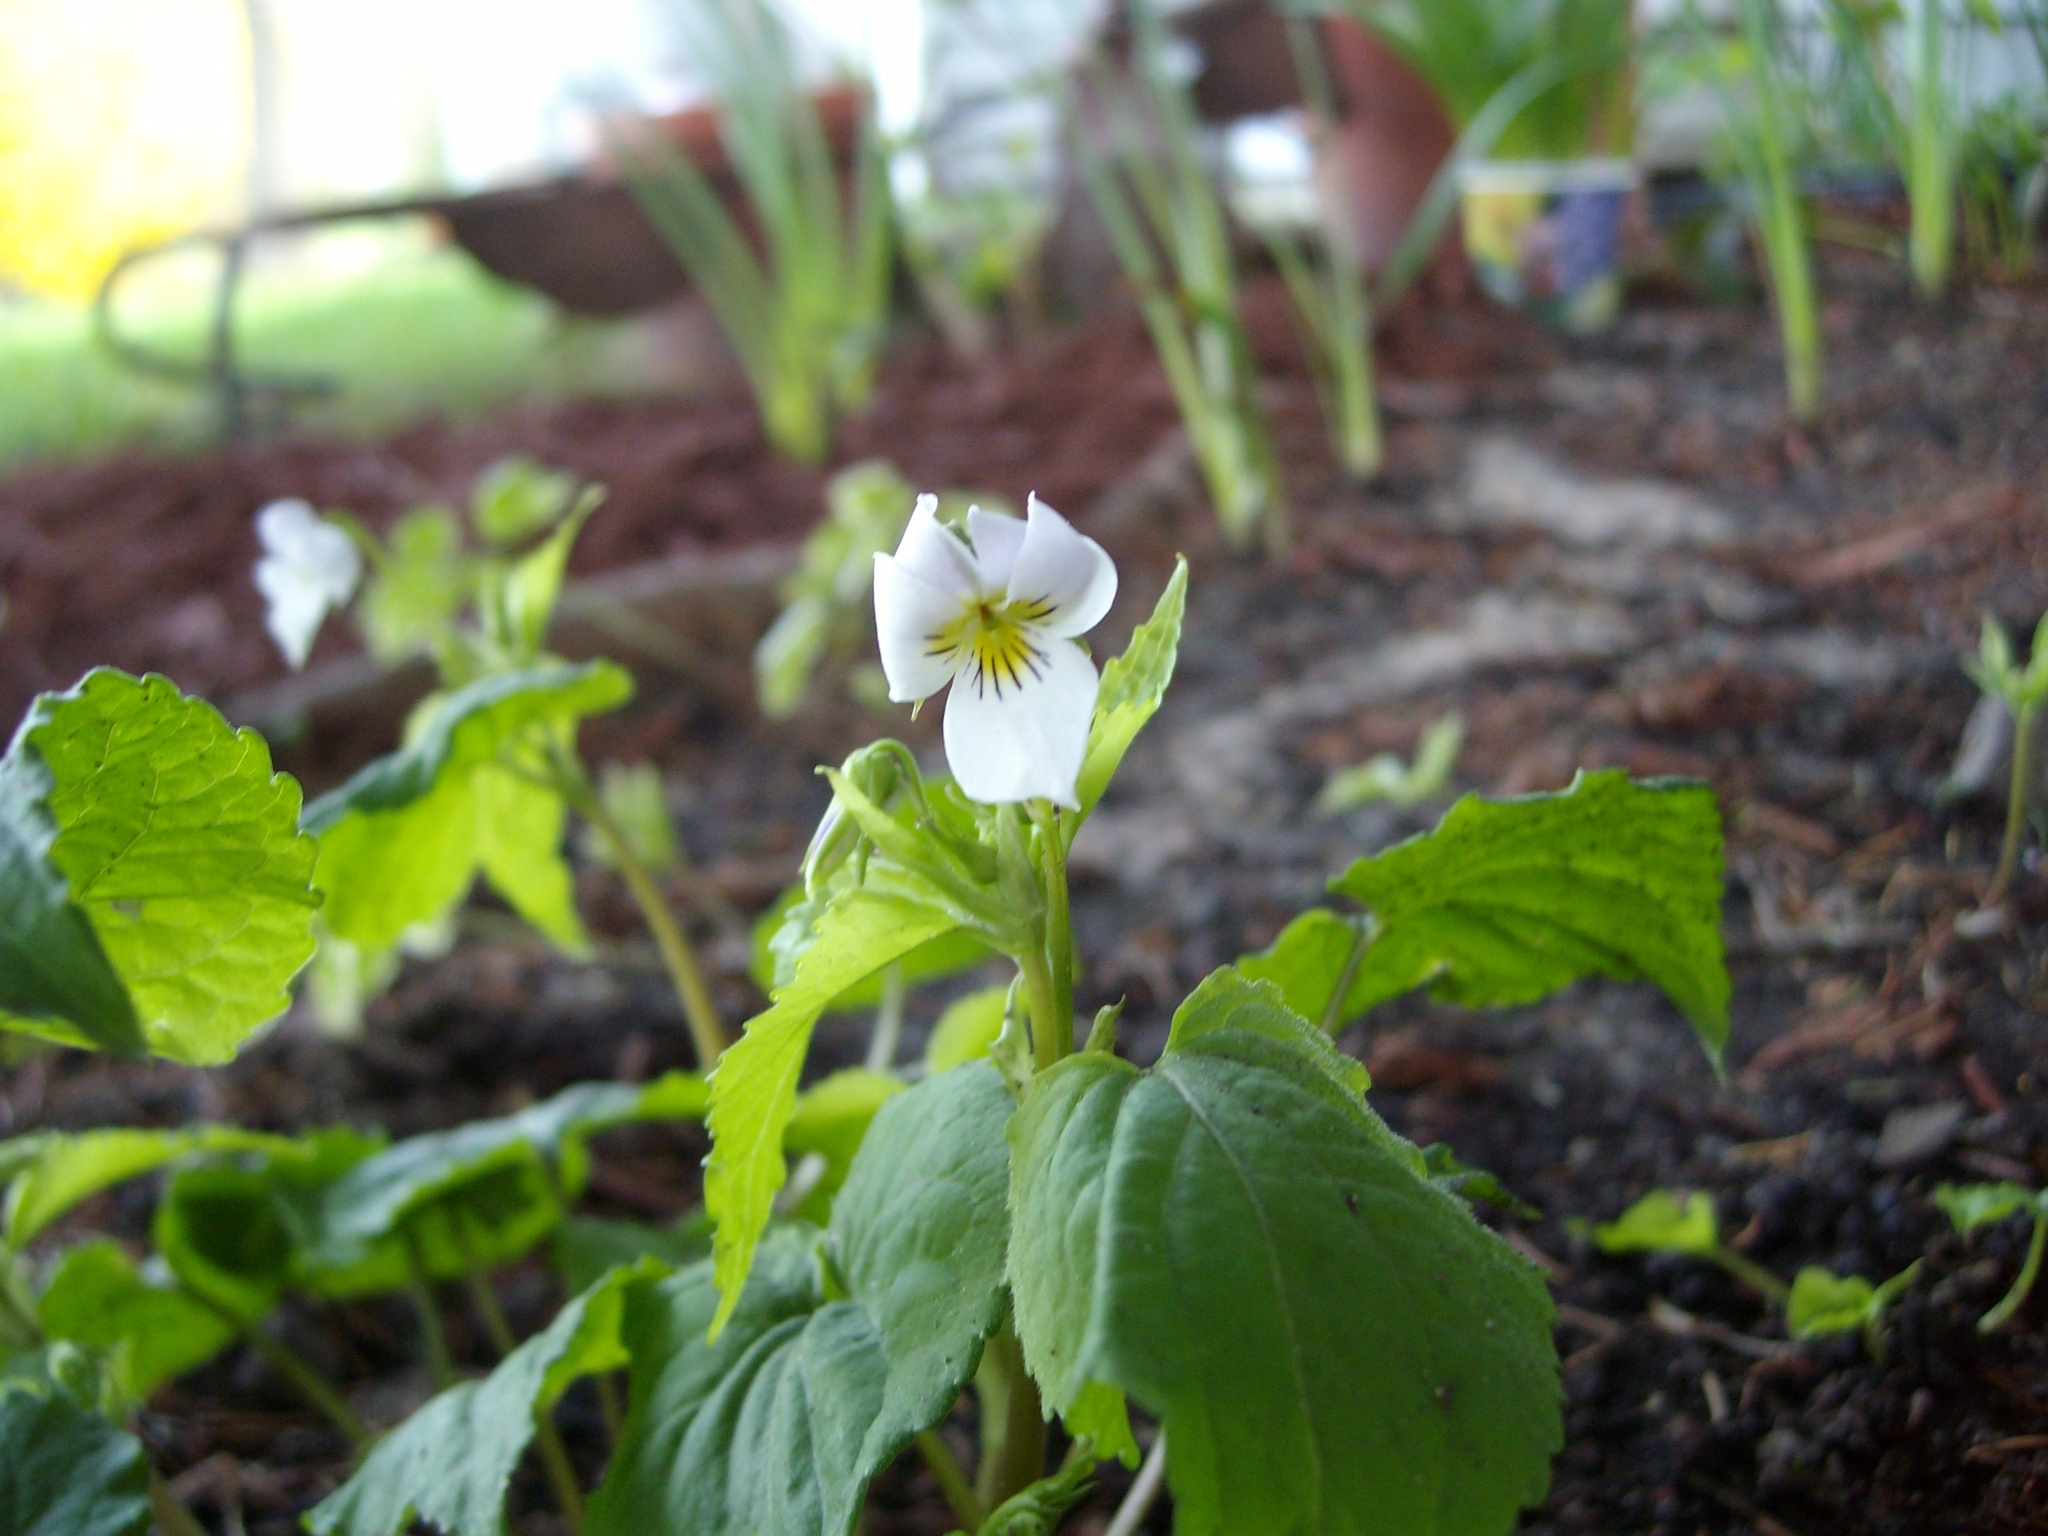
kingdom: Plantae
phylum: Tracheophyta
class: Magnoliopsida
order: Malpighiales
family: Violaceae
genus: Viola
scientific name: Viola canadensis
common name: Canada violet
